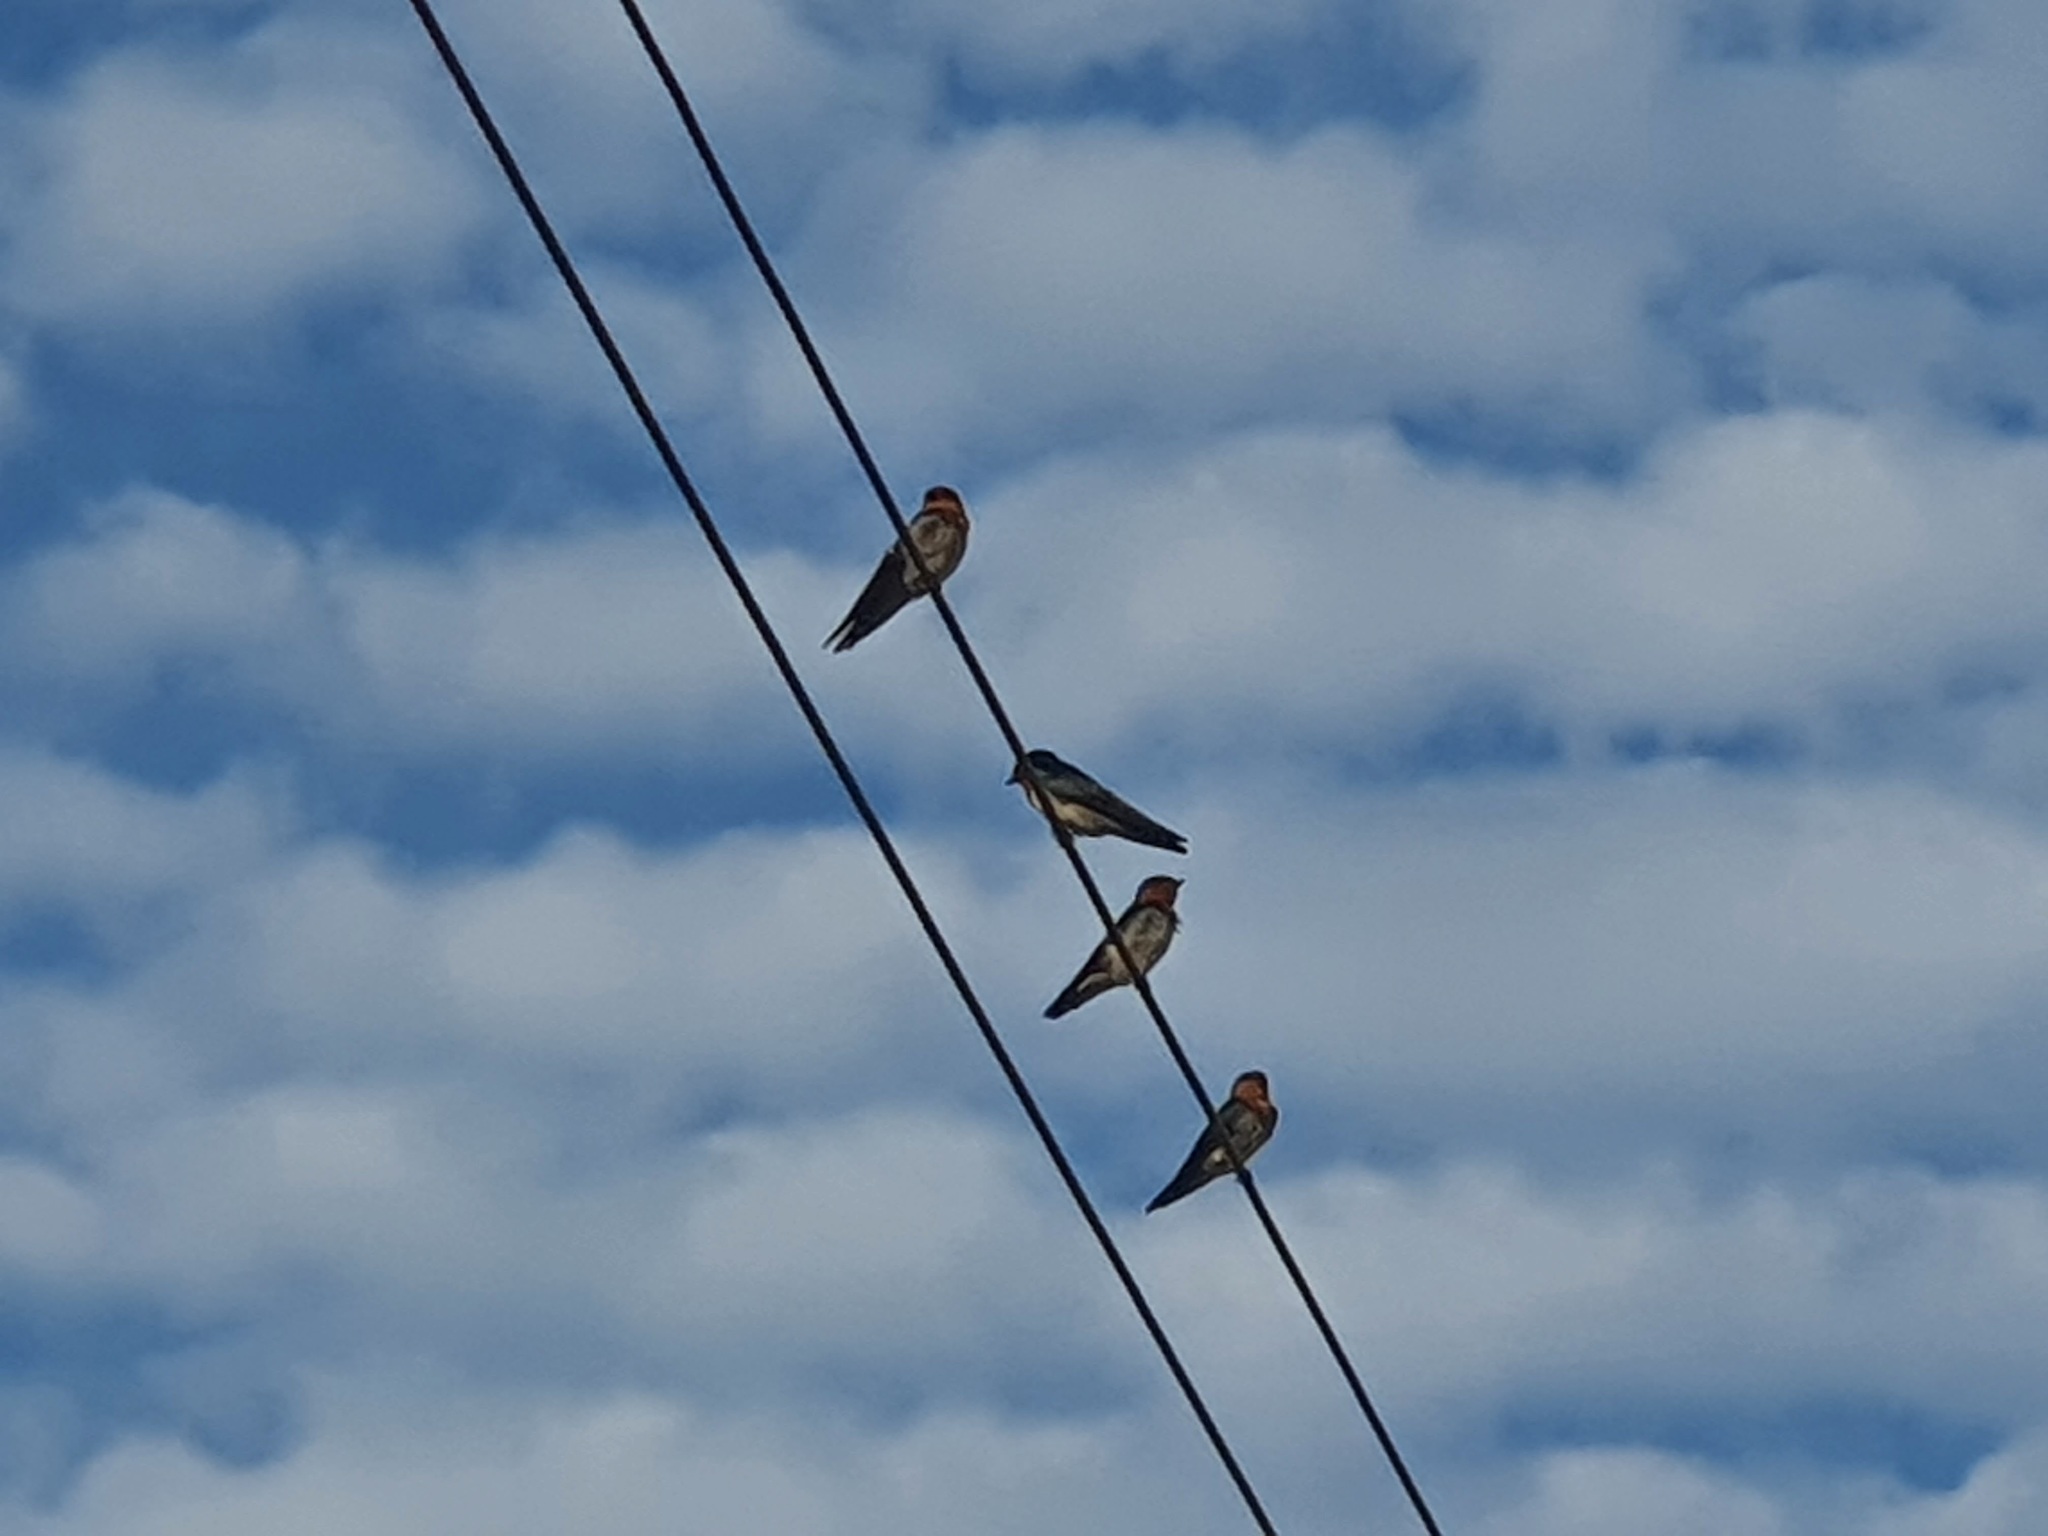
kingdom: Animalia
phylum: Chordata
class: Aves
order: Passeriformes
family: Hirundinidae
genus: Hirundo
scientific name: Hirundo tahitica
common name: Pacific swallow
